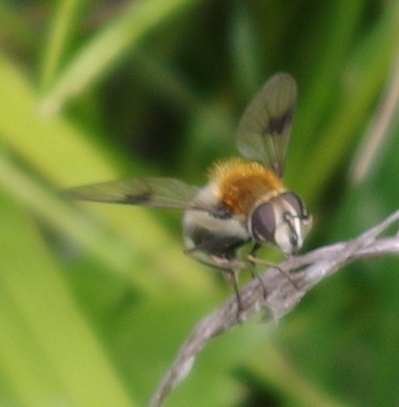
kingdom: Animalia
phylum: Arthropoda
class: Insecta
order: Diptera
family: Syrphidae
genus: Leucozona
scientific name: Leucozona lucorum
